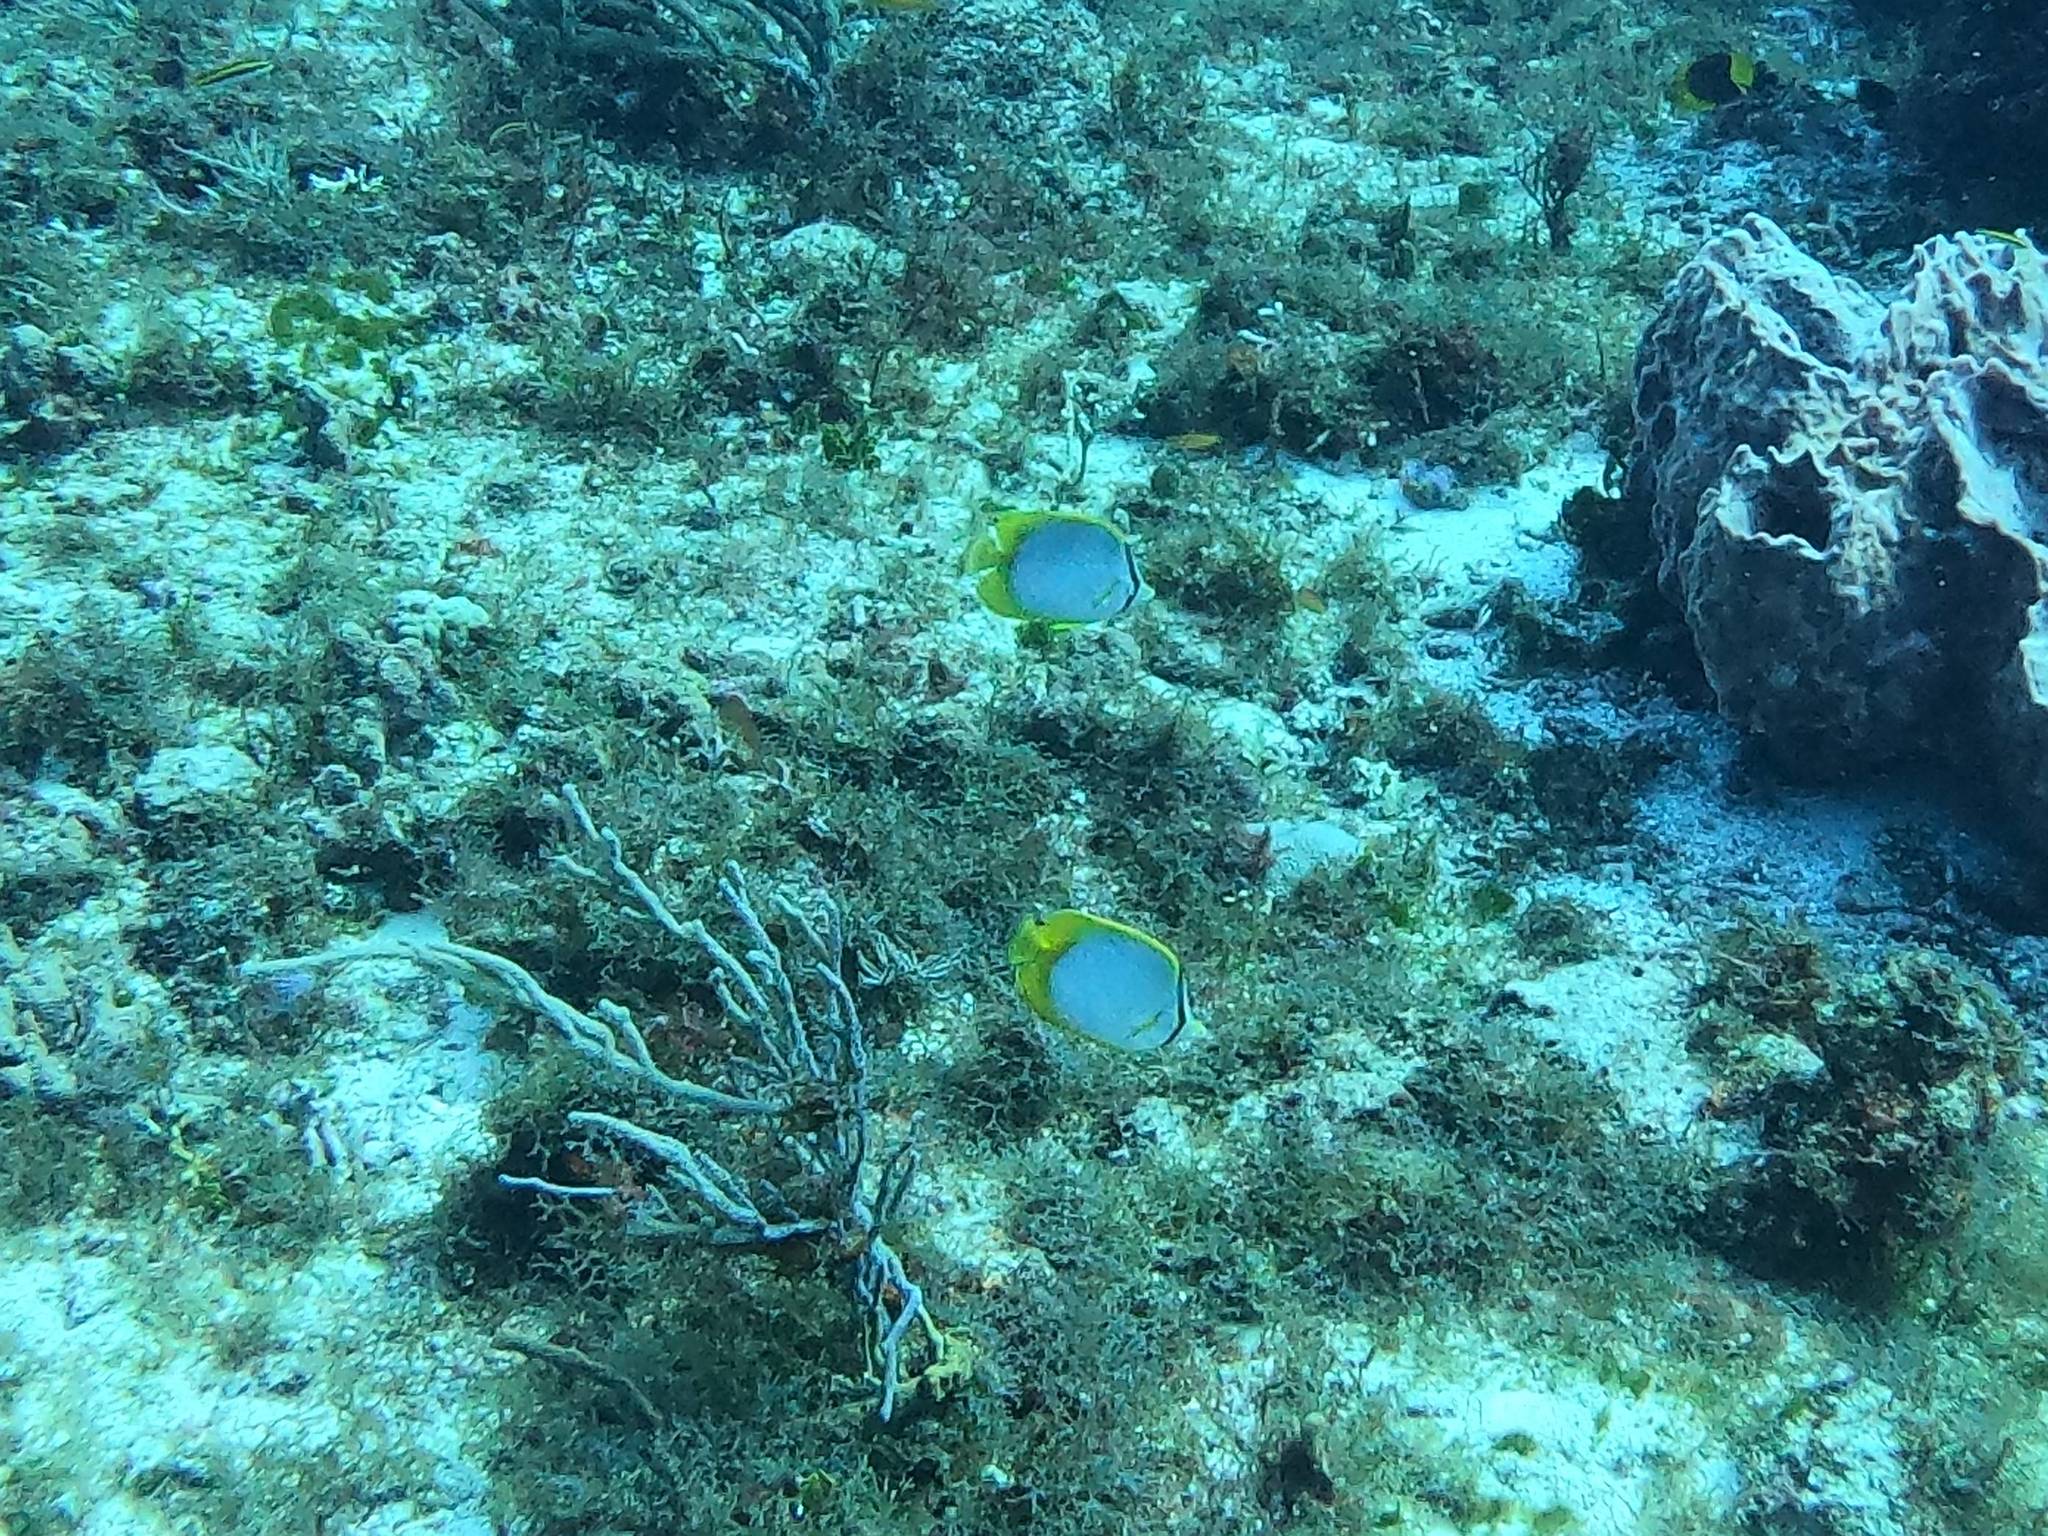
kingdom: Animalia
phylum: Chordata
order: Perciformes
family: Chaetodontidae
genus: Chaetodon
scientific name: Chaetodon ocellatus
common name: Spotfin butterflyfish
